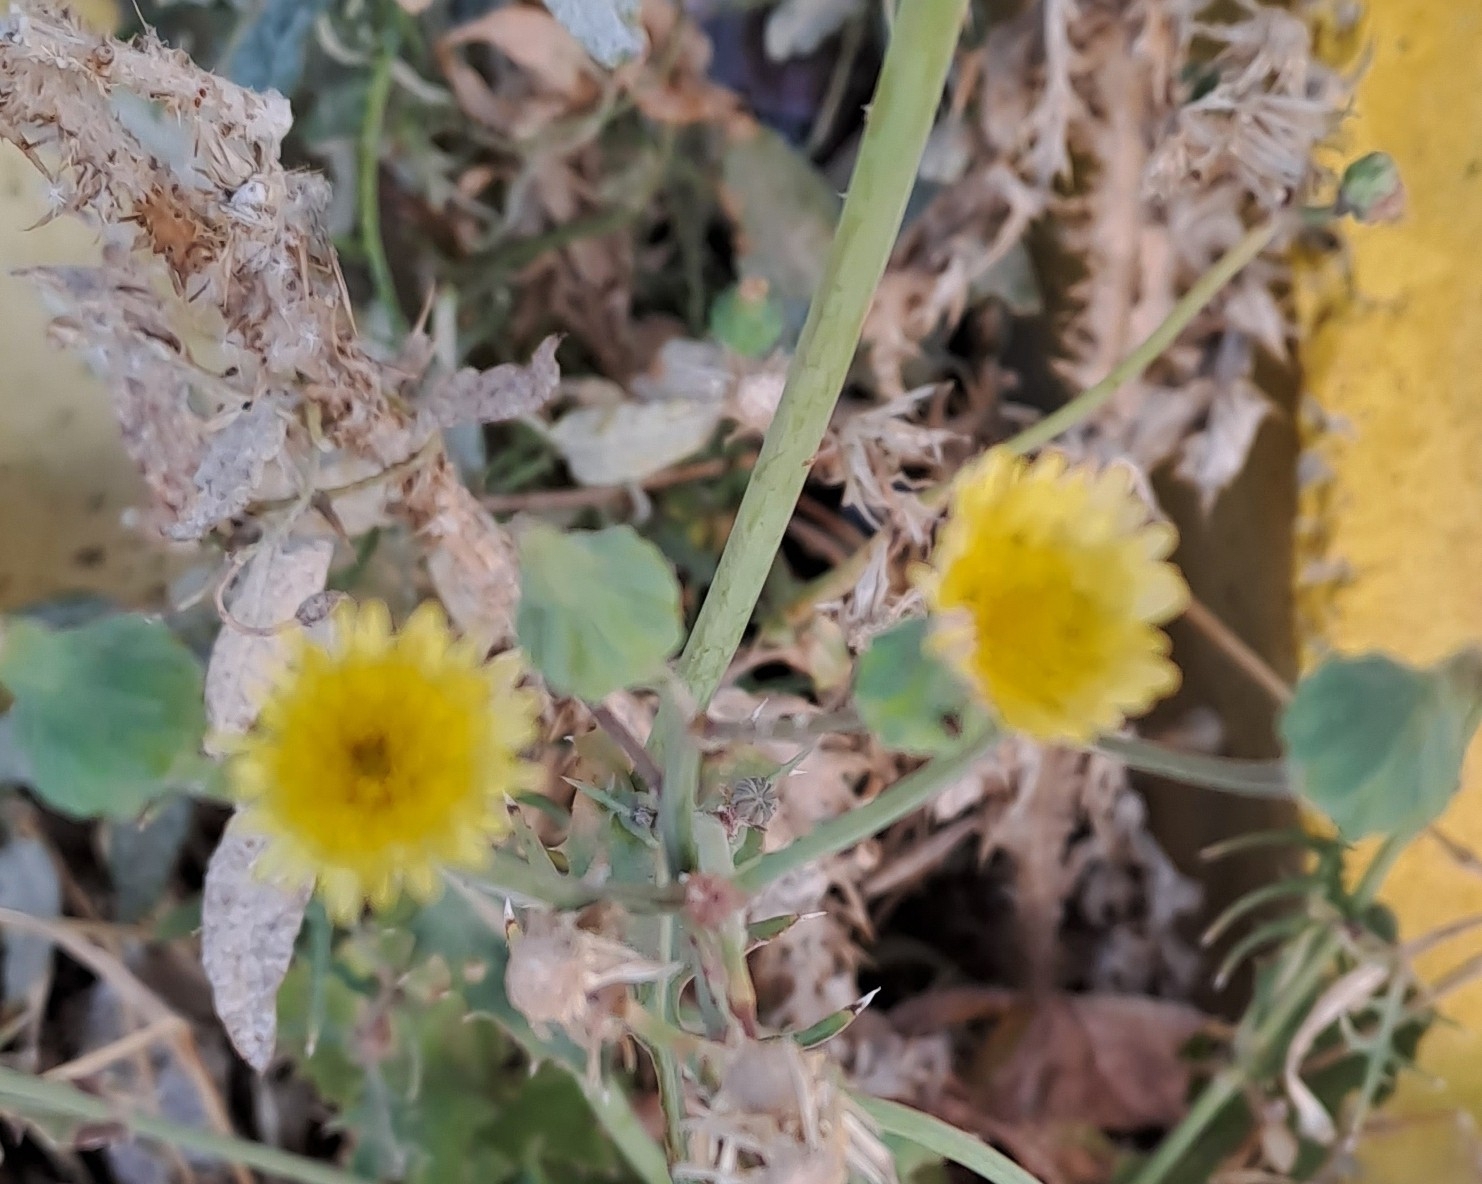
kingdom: Plantae
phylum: Tracheophyta
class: Magnoliopsida
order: Asterales
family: Asteraceae
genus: Sonchus
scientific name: Sonchus oleraceus
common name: Common sowthistle
